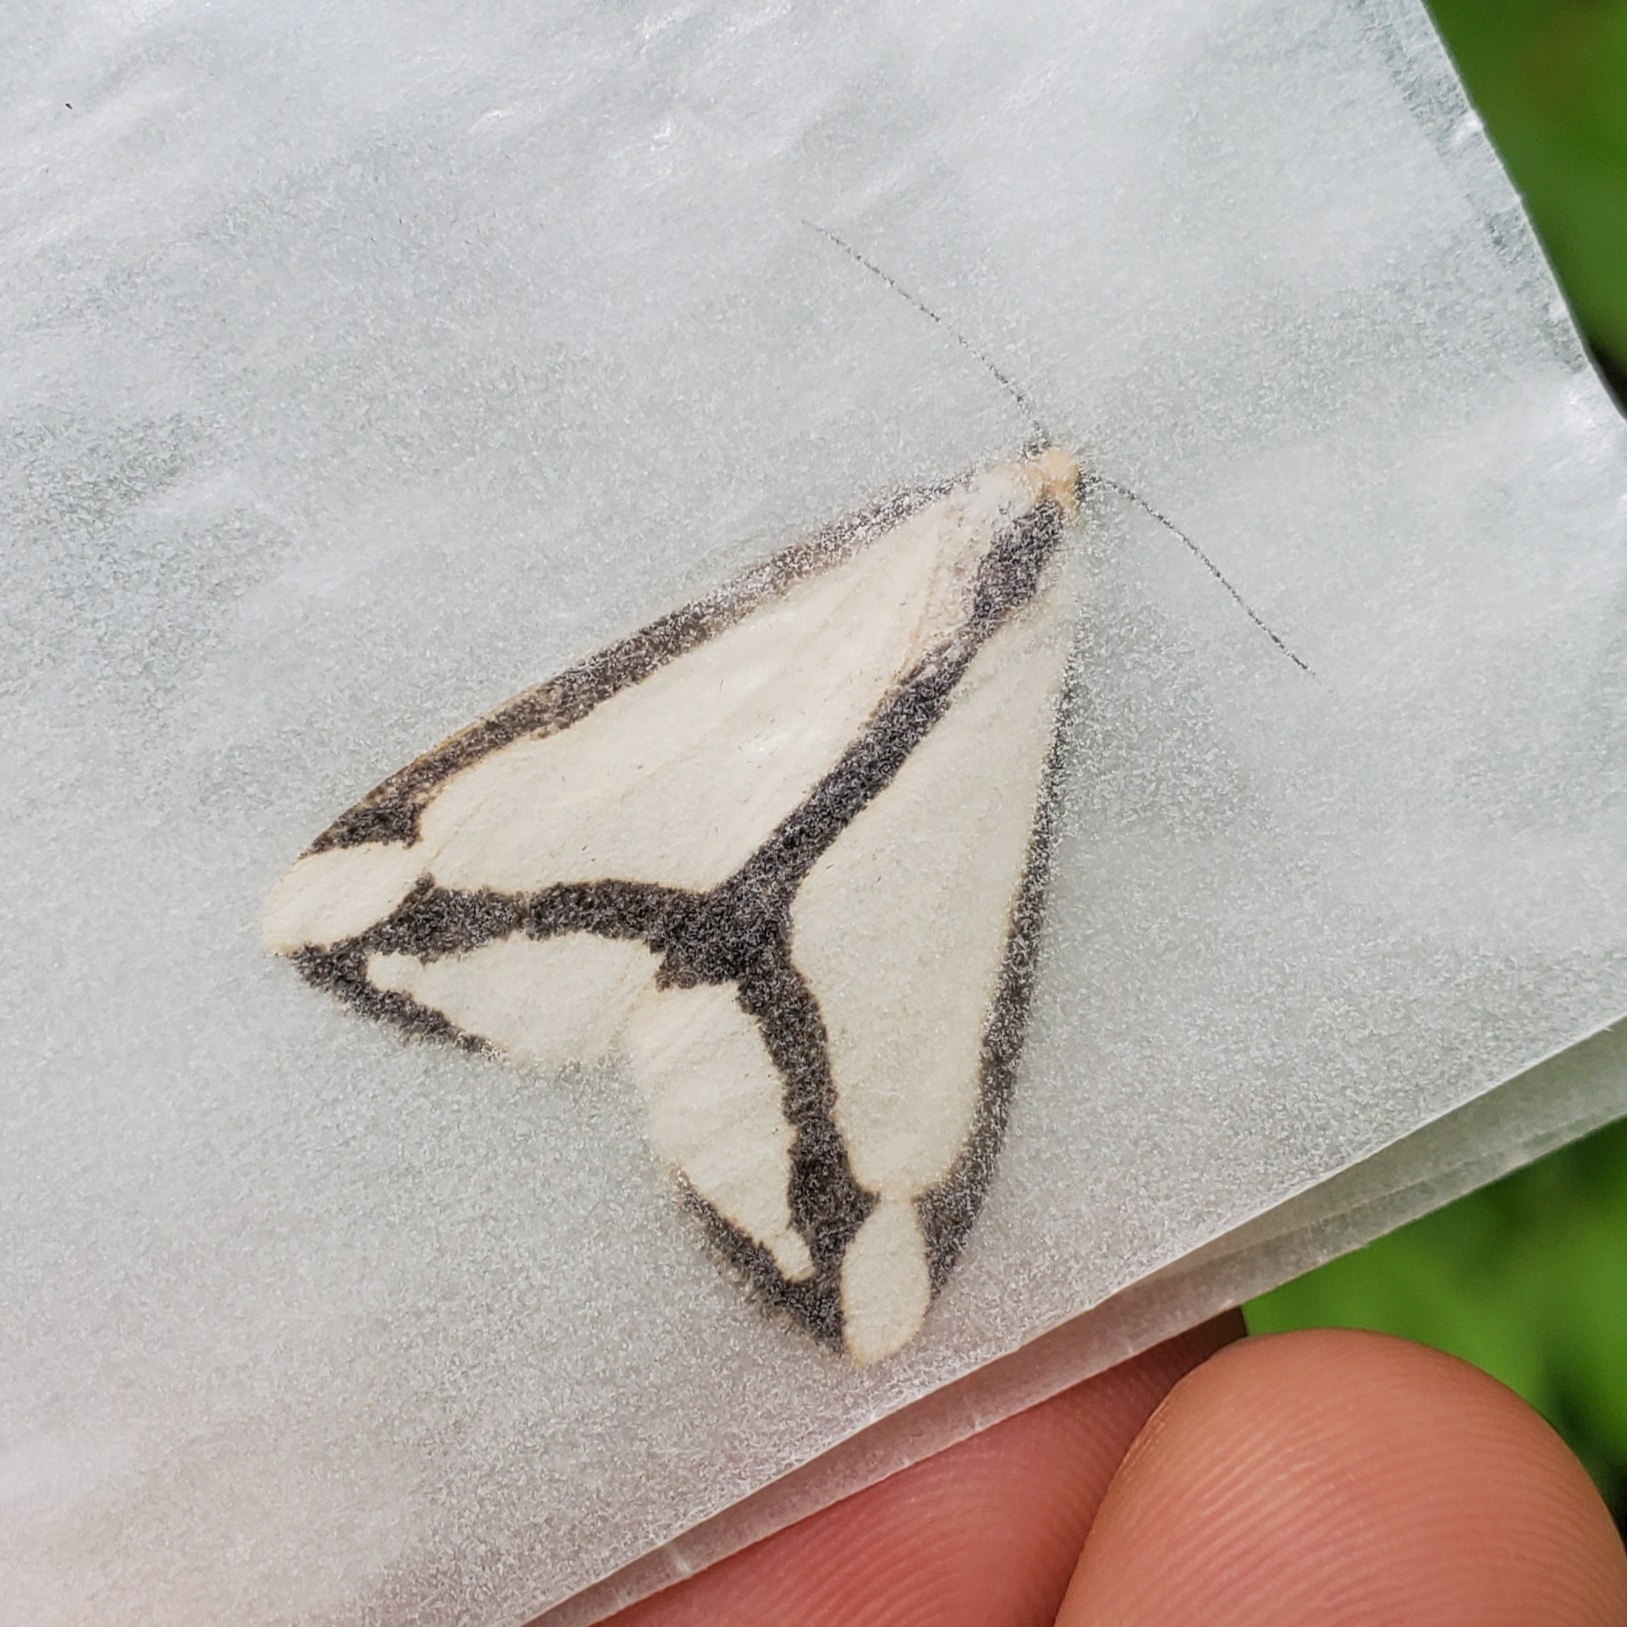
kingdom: Animalia
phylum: Arthropoda
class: Insecta
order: Lepidoptera
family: Erebidae
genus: Haploa
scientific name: Haploa lecontei
